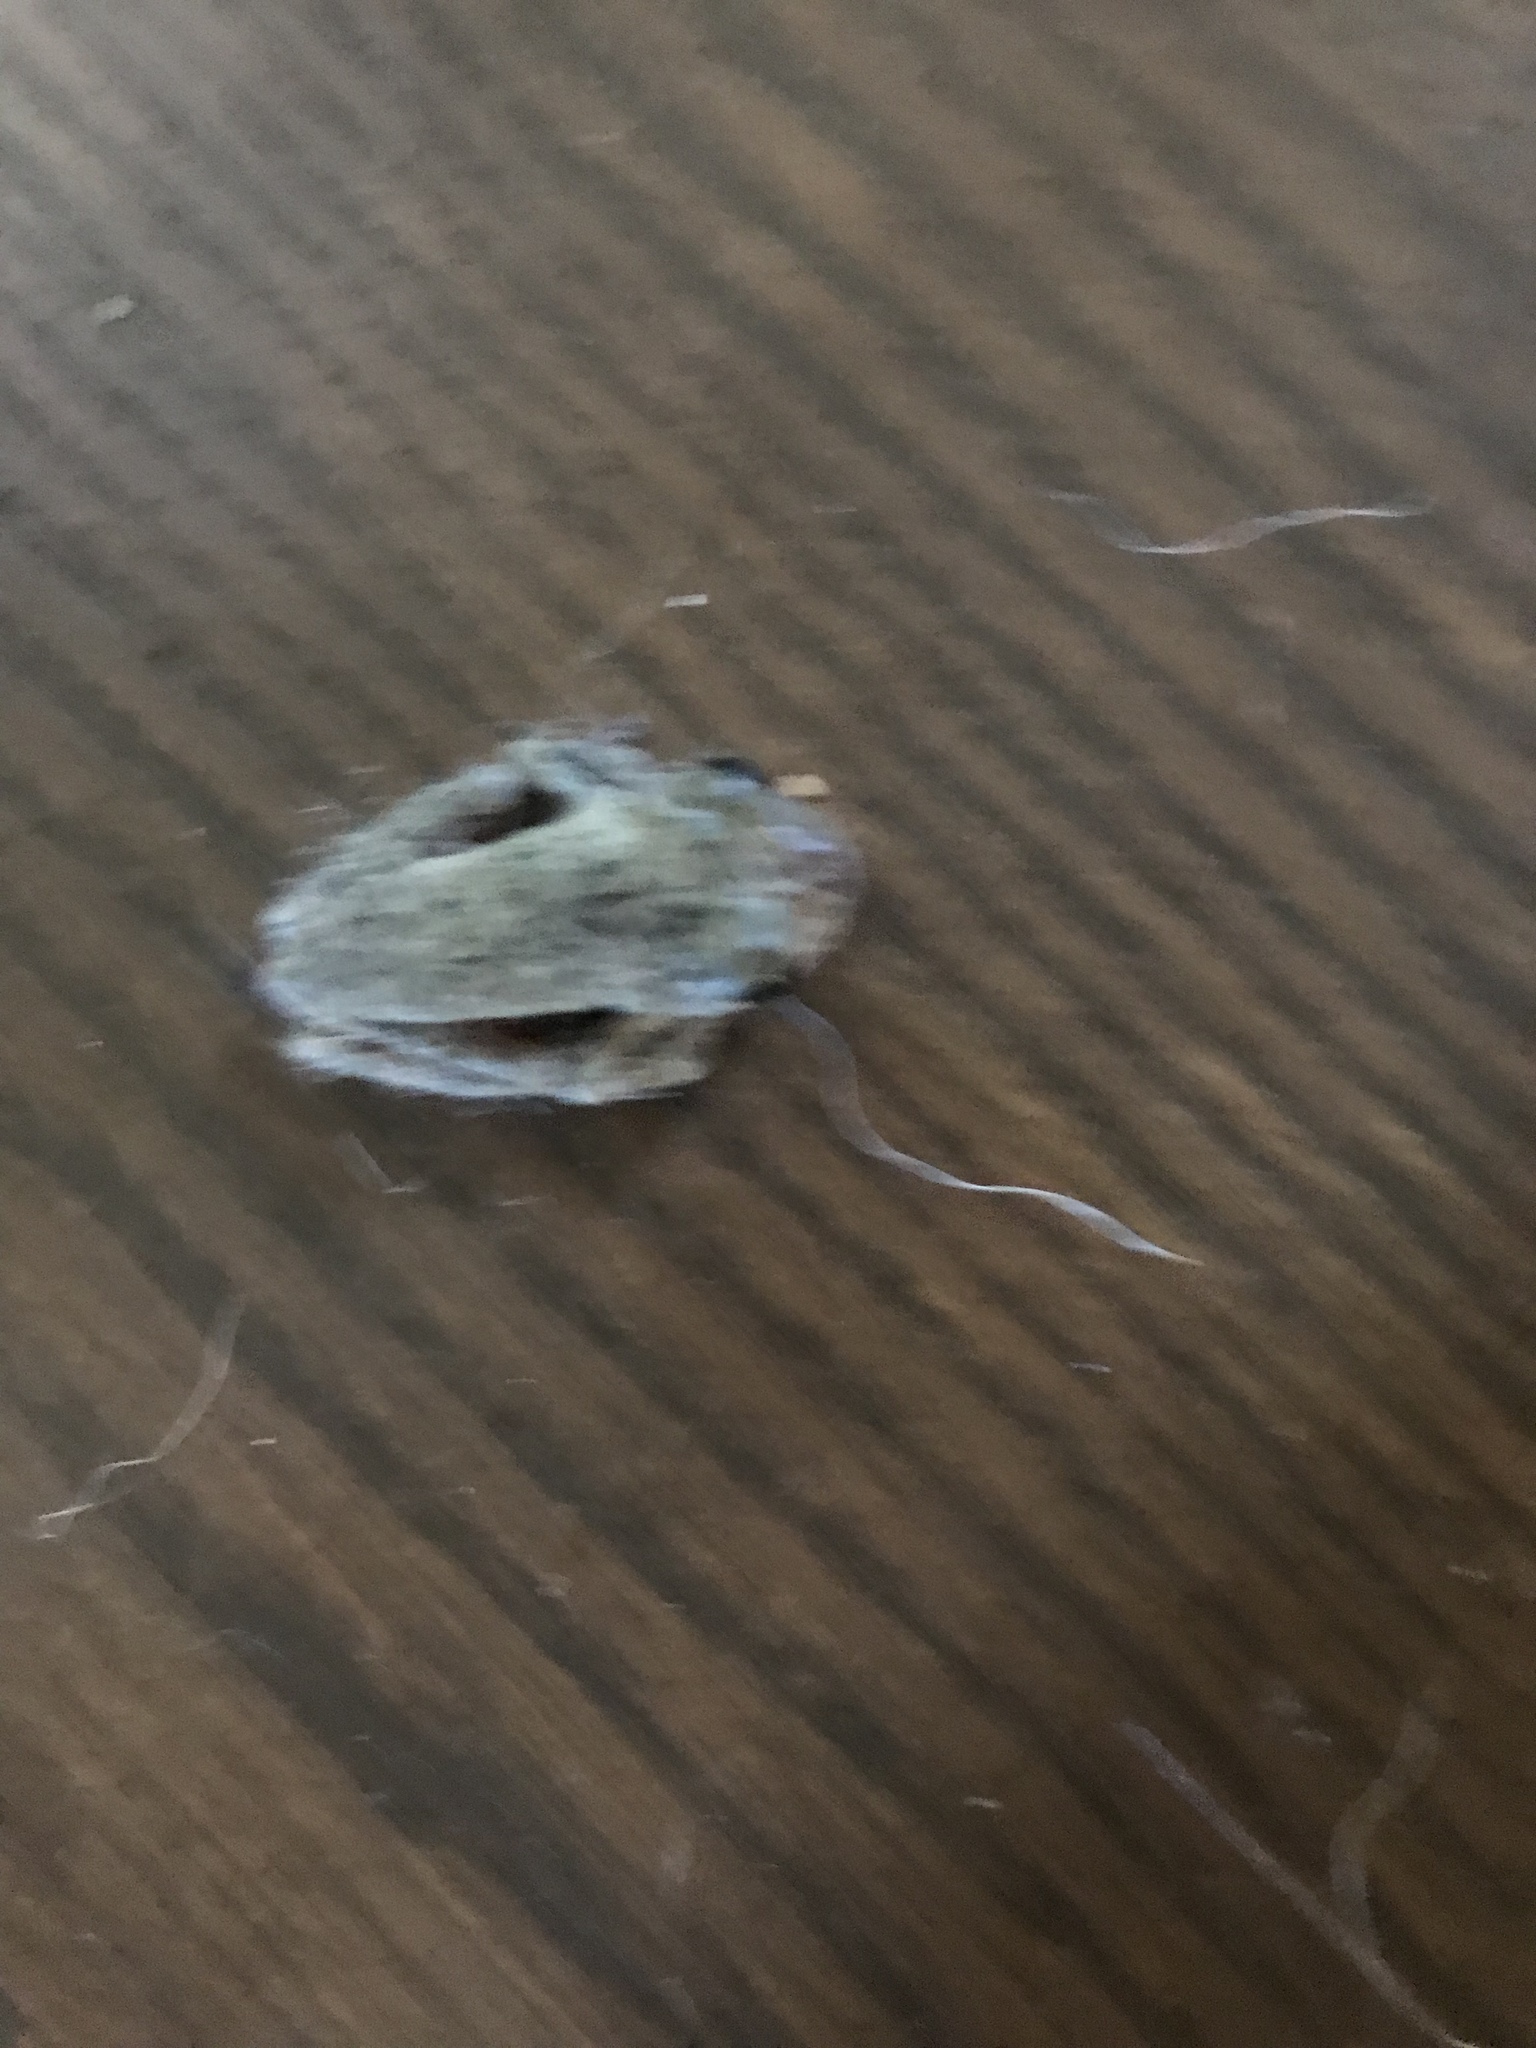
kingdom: Animalia
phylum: Chordata
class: Amphibia
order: Anura
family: Hylidae
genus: Dryophytes
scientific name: Dryophytes chrysoscelis
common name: Cope's gray treefrog
